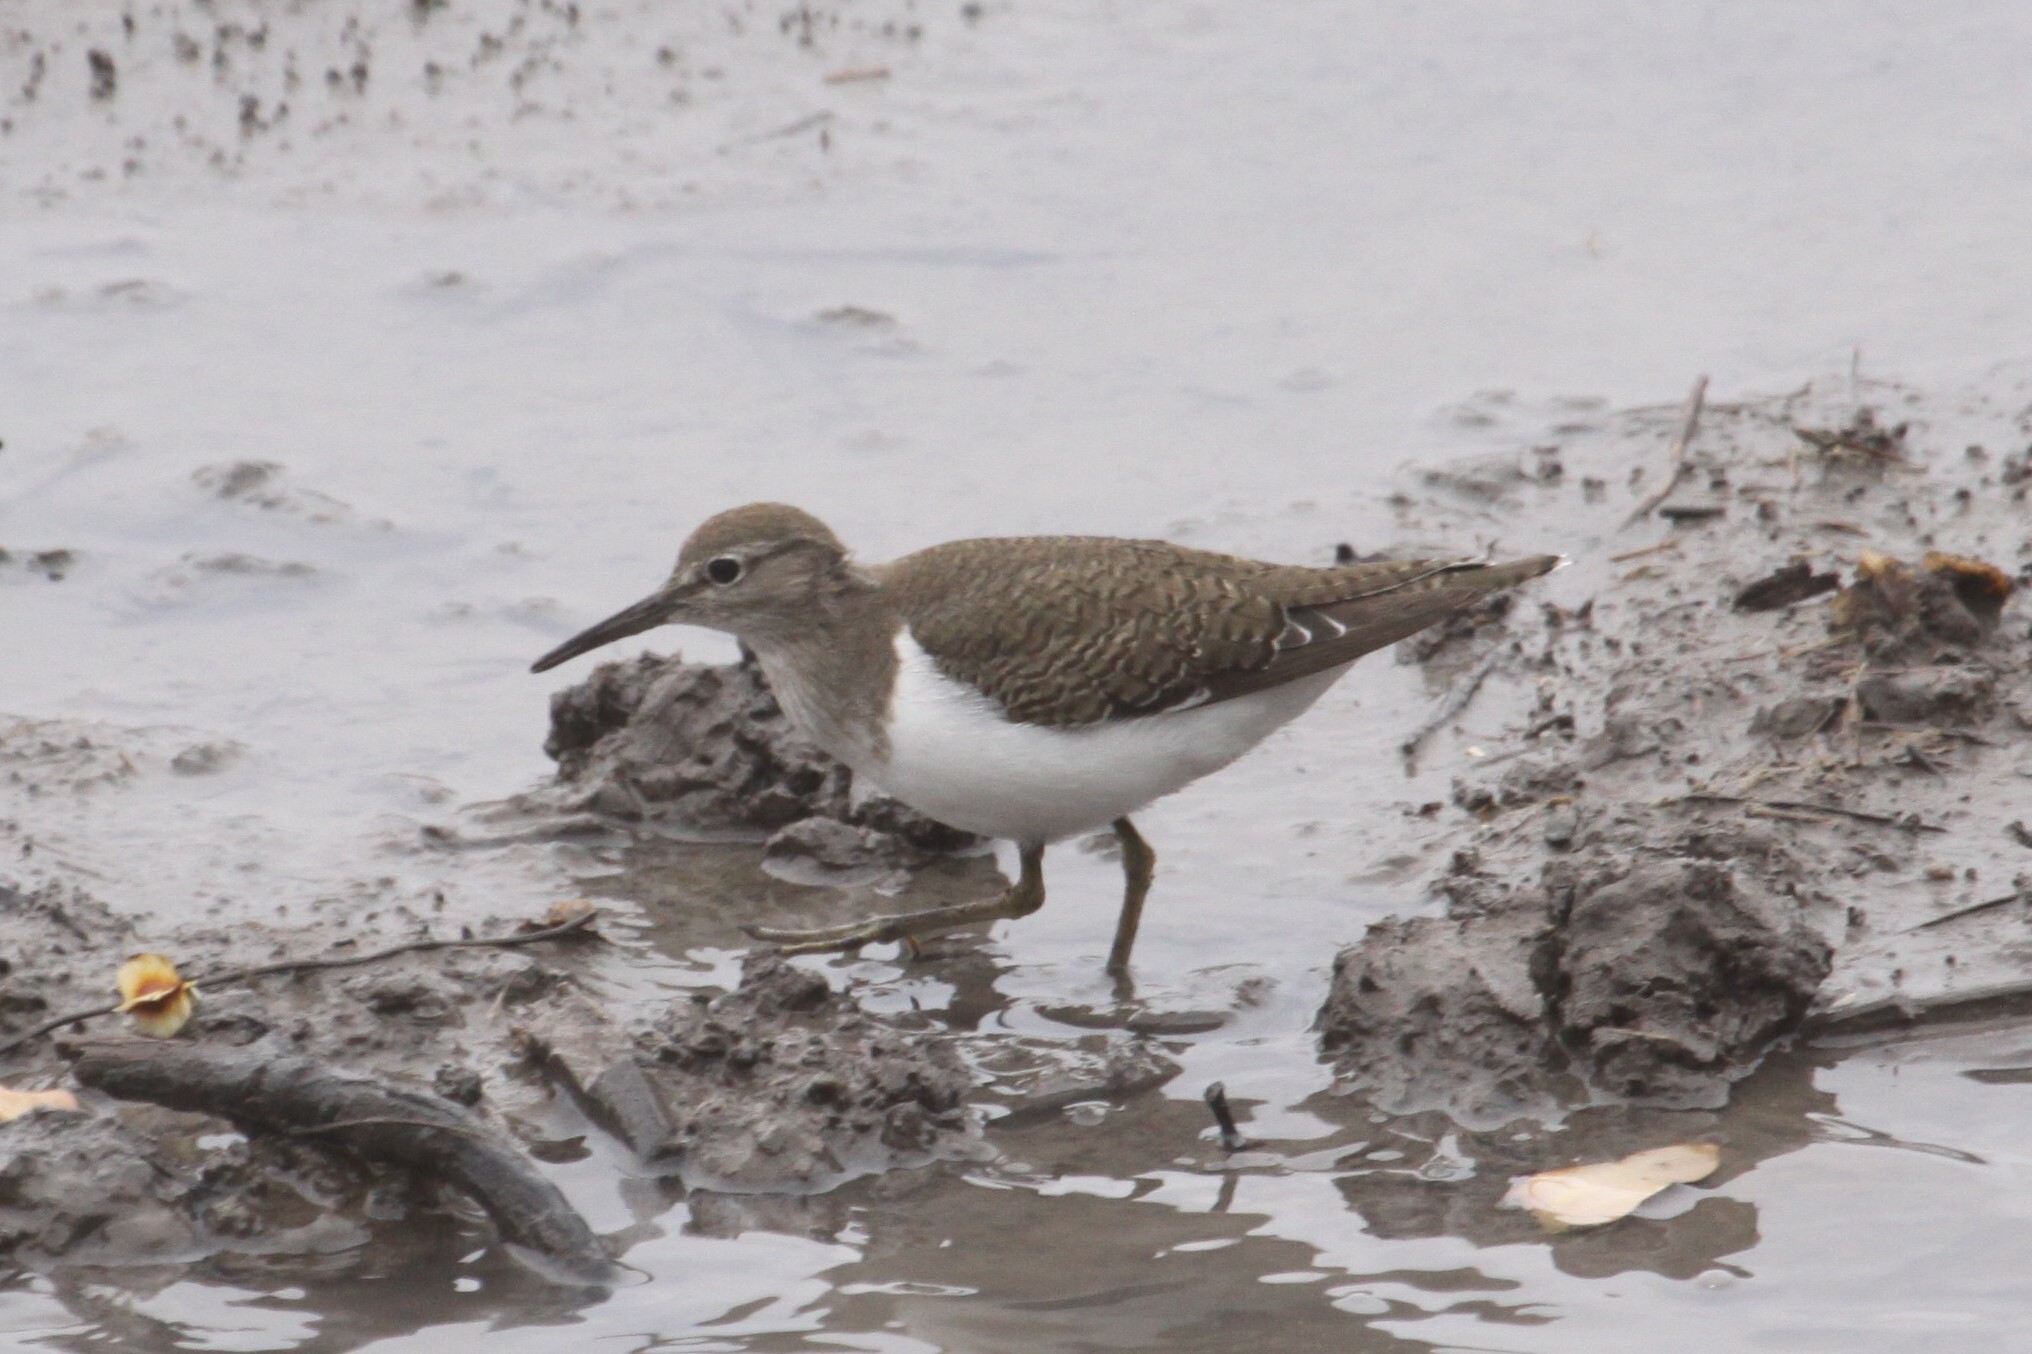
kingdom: Animalia
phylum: Chordata
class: Aves
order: Charadriiformes
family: Scolopacidae
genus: Actitis
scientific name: Actitis hypoleucos
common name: Common sandpiper
